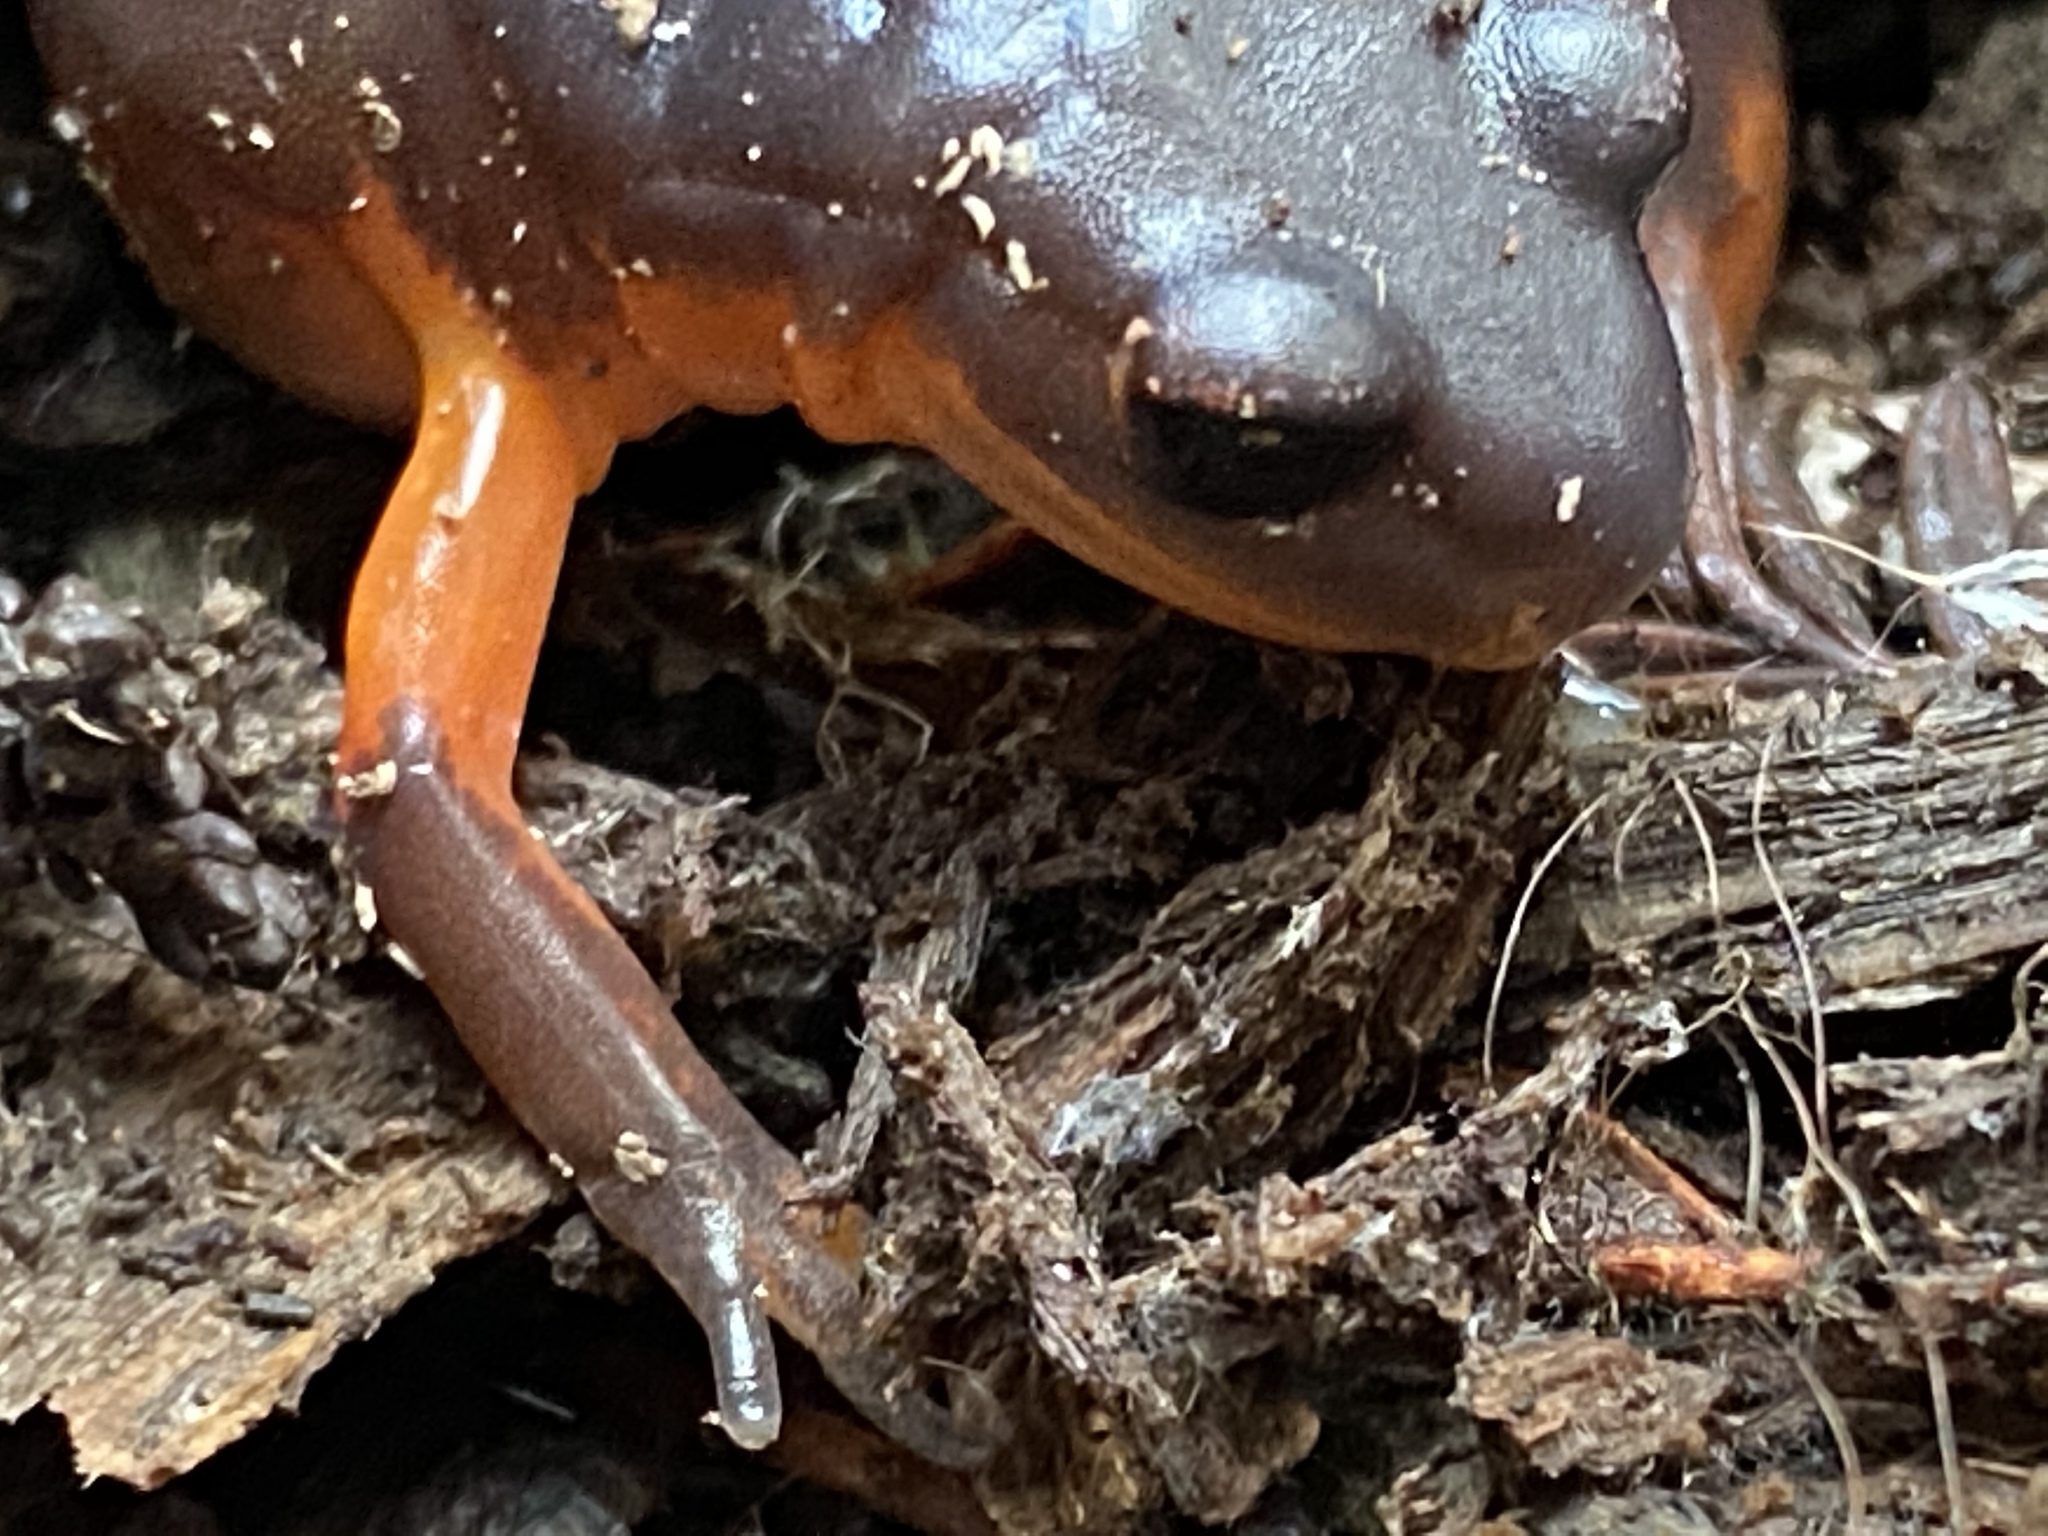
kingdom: Animalia
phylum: Chordata
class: Amphibia
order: Caudata
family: Plethodontidae
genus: Ensatina
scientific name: Ensatina eschscholtzii
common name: Ensatina
